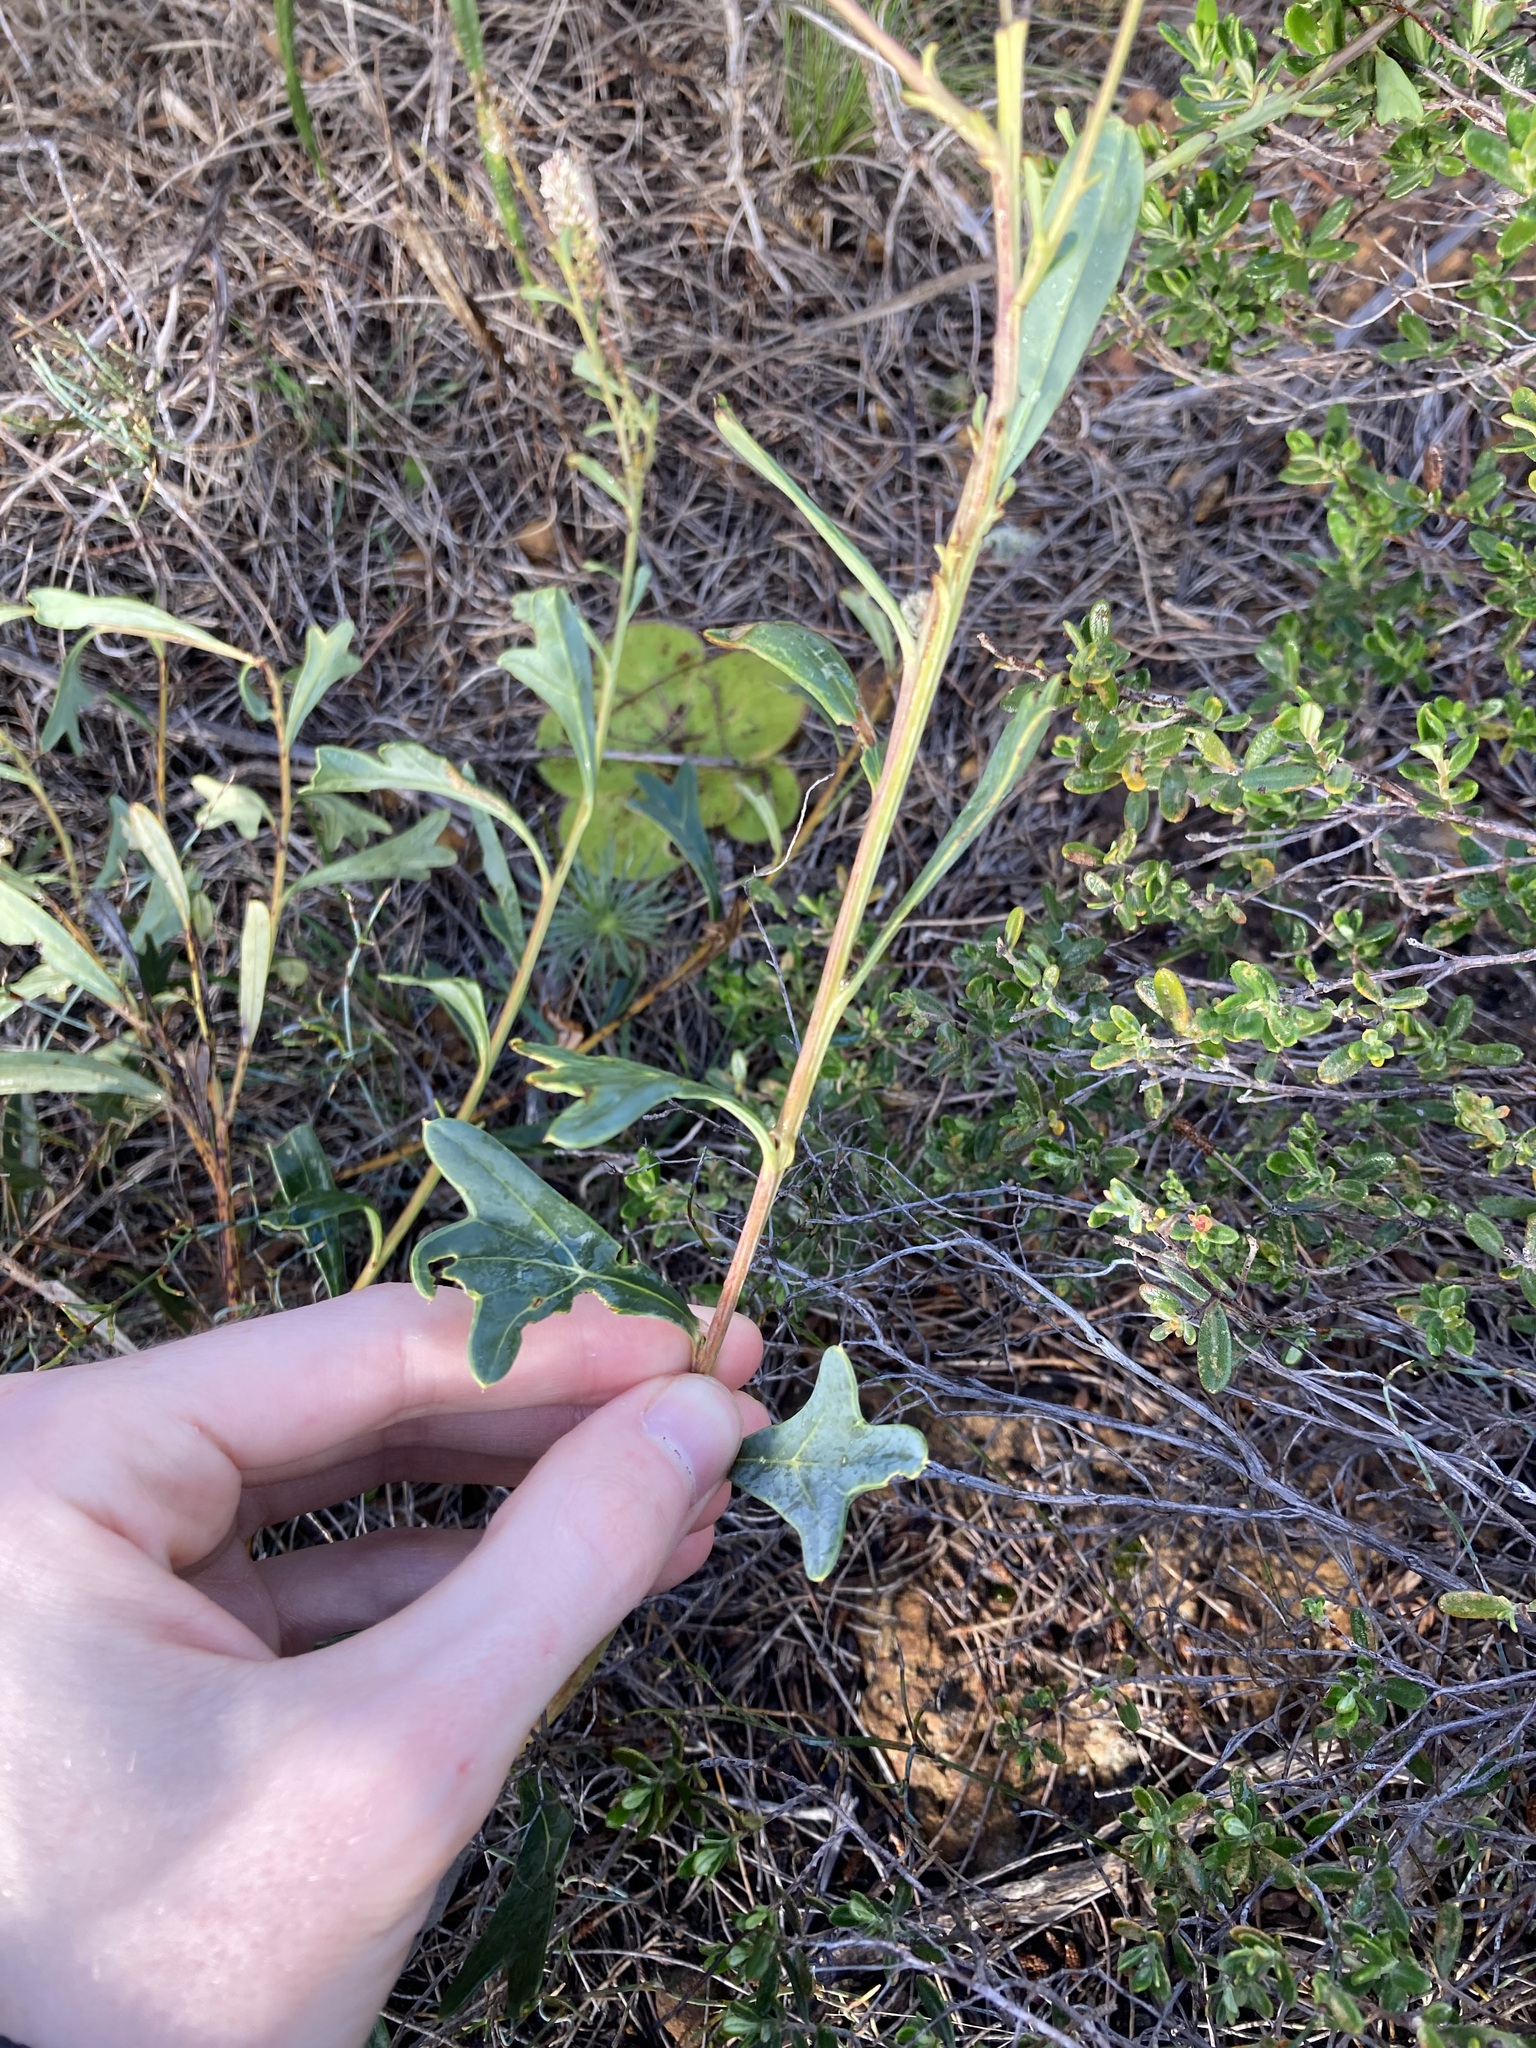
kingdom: Plantae
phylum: Tracheophyta
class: Magnoliopsida
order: Proteales
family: Proteaceae
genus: Grevillea
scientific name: Grevillea rudis
